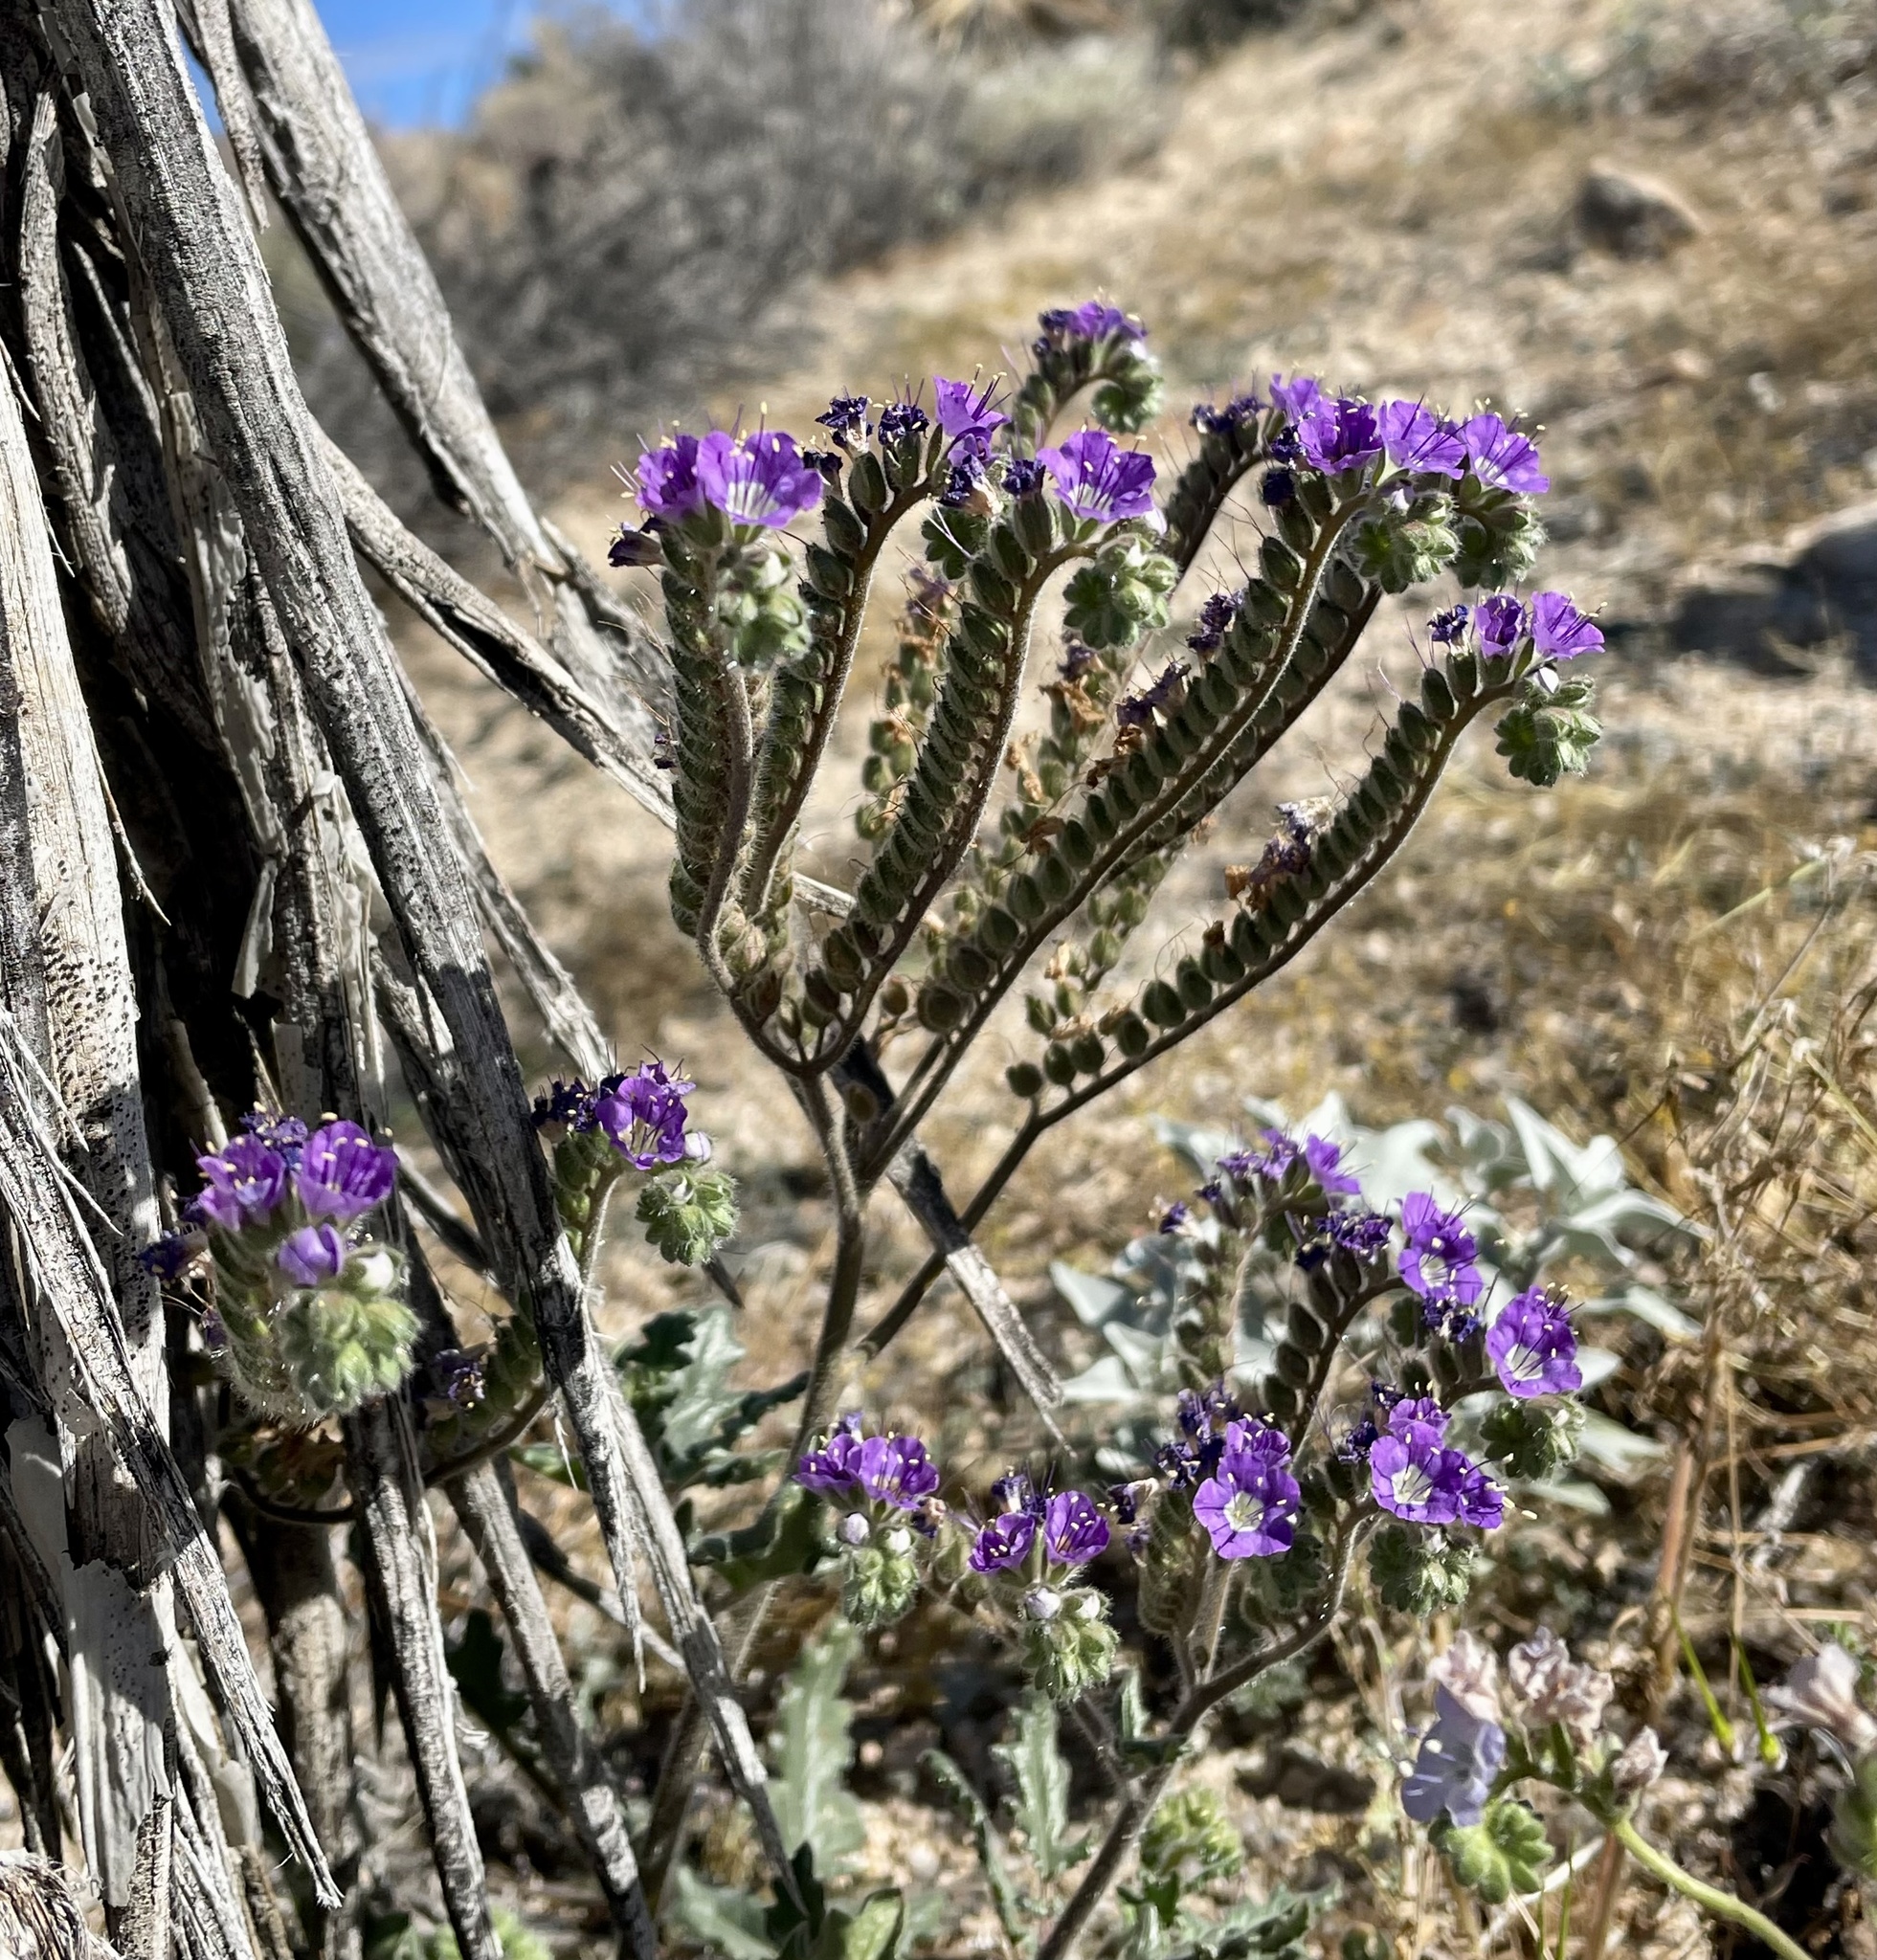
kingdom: Plantae
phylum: Tracheophyta
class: Magnoliopsida
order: Boraginales
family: Hydrophyllaceae
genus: Phacelia
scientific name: Phacelia crenulata
